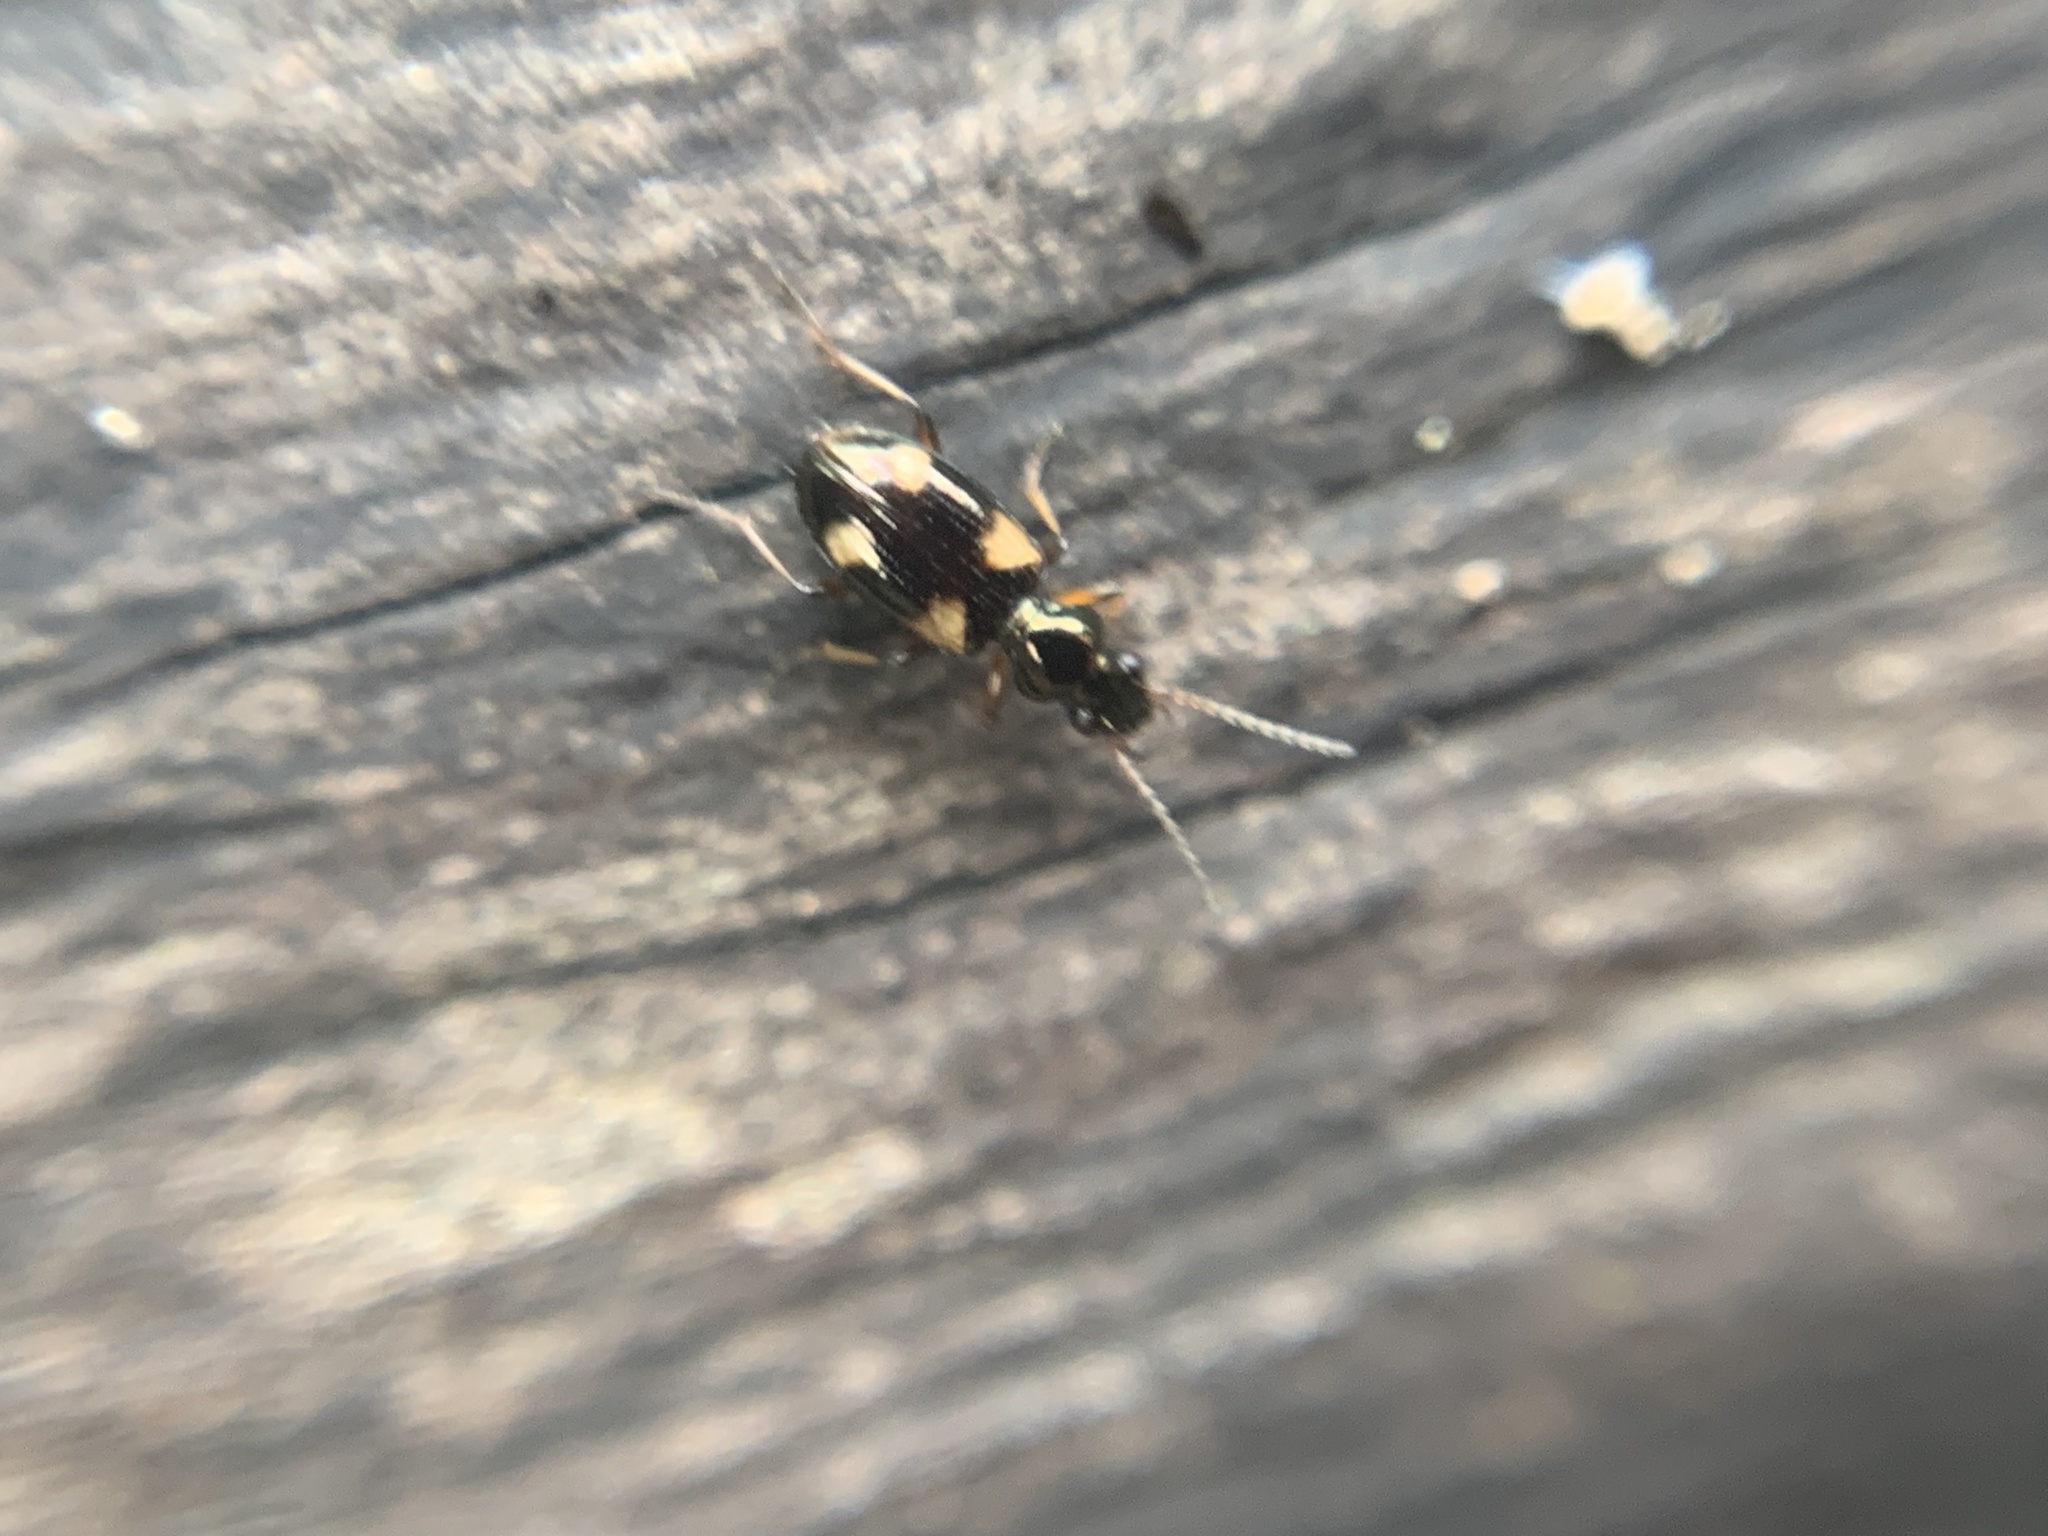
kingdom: Animalia
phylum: Arthropoda
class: Insecta
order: Coleoptera
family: Carabidae
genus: Bembidion
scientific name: Bembidion quadrimaculatum
